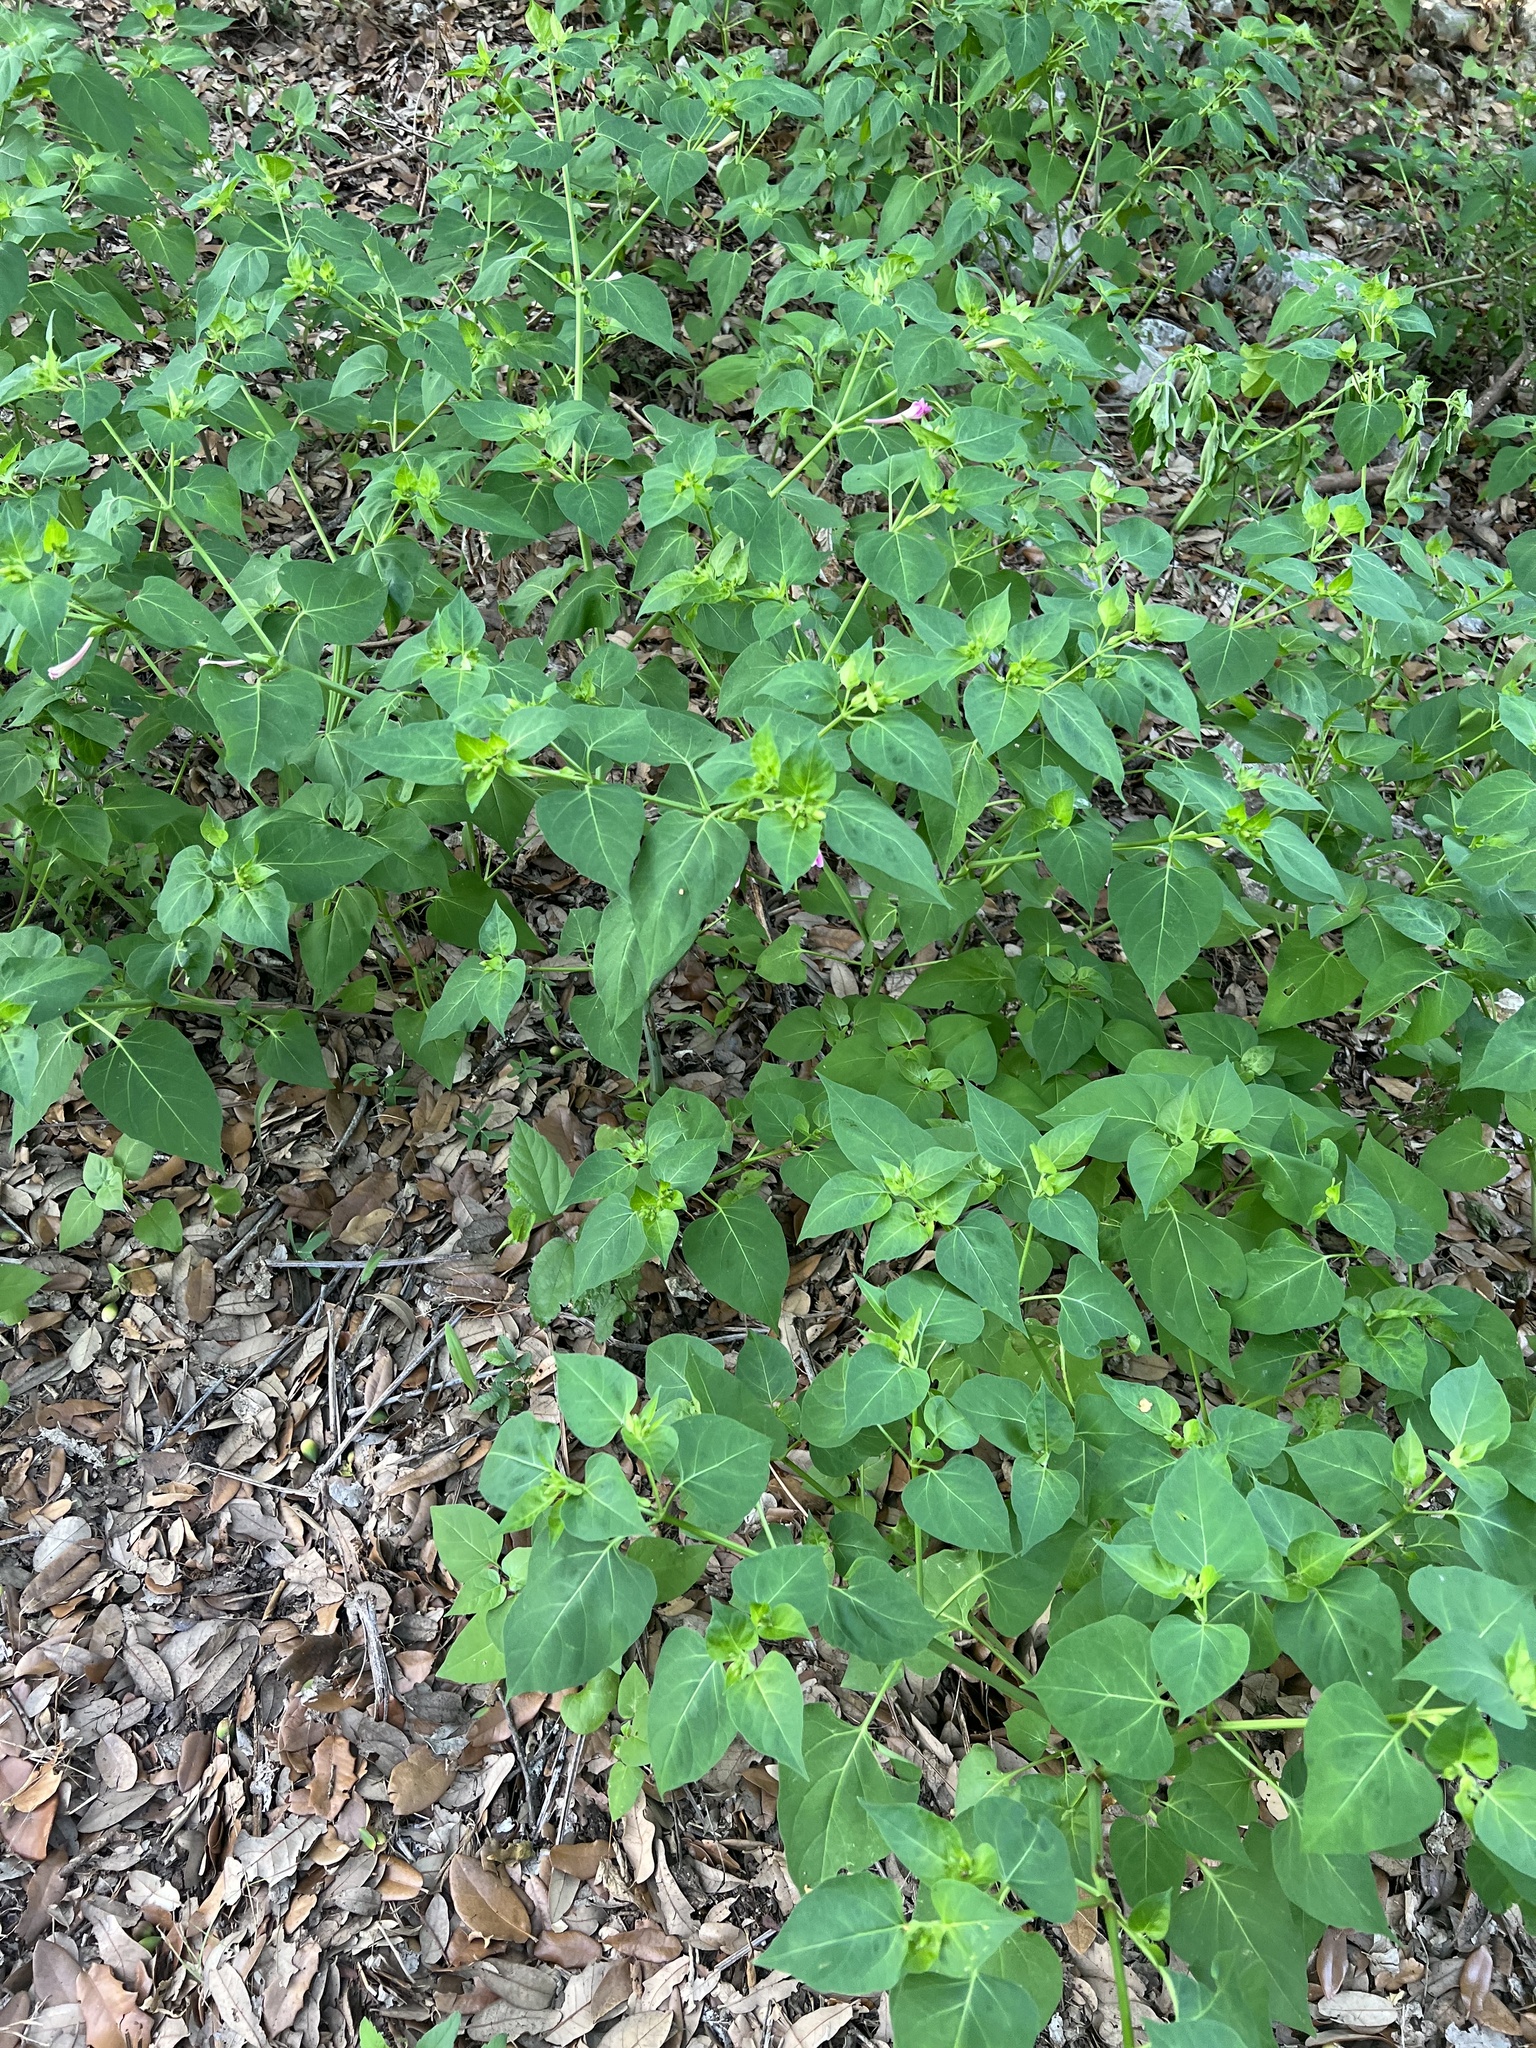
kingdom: Plantae
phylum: Tracheophyta
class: Magnoliopsida
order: Caryophyllales
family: Nyctaginaceae
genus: Mirabilis
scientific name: Mirabilis jalapa
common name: Marvel-of-peru
